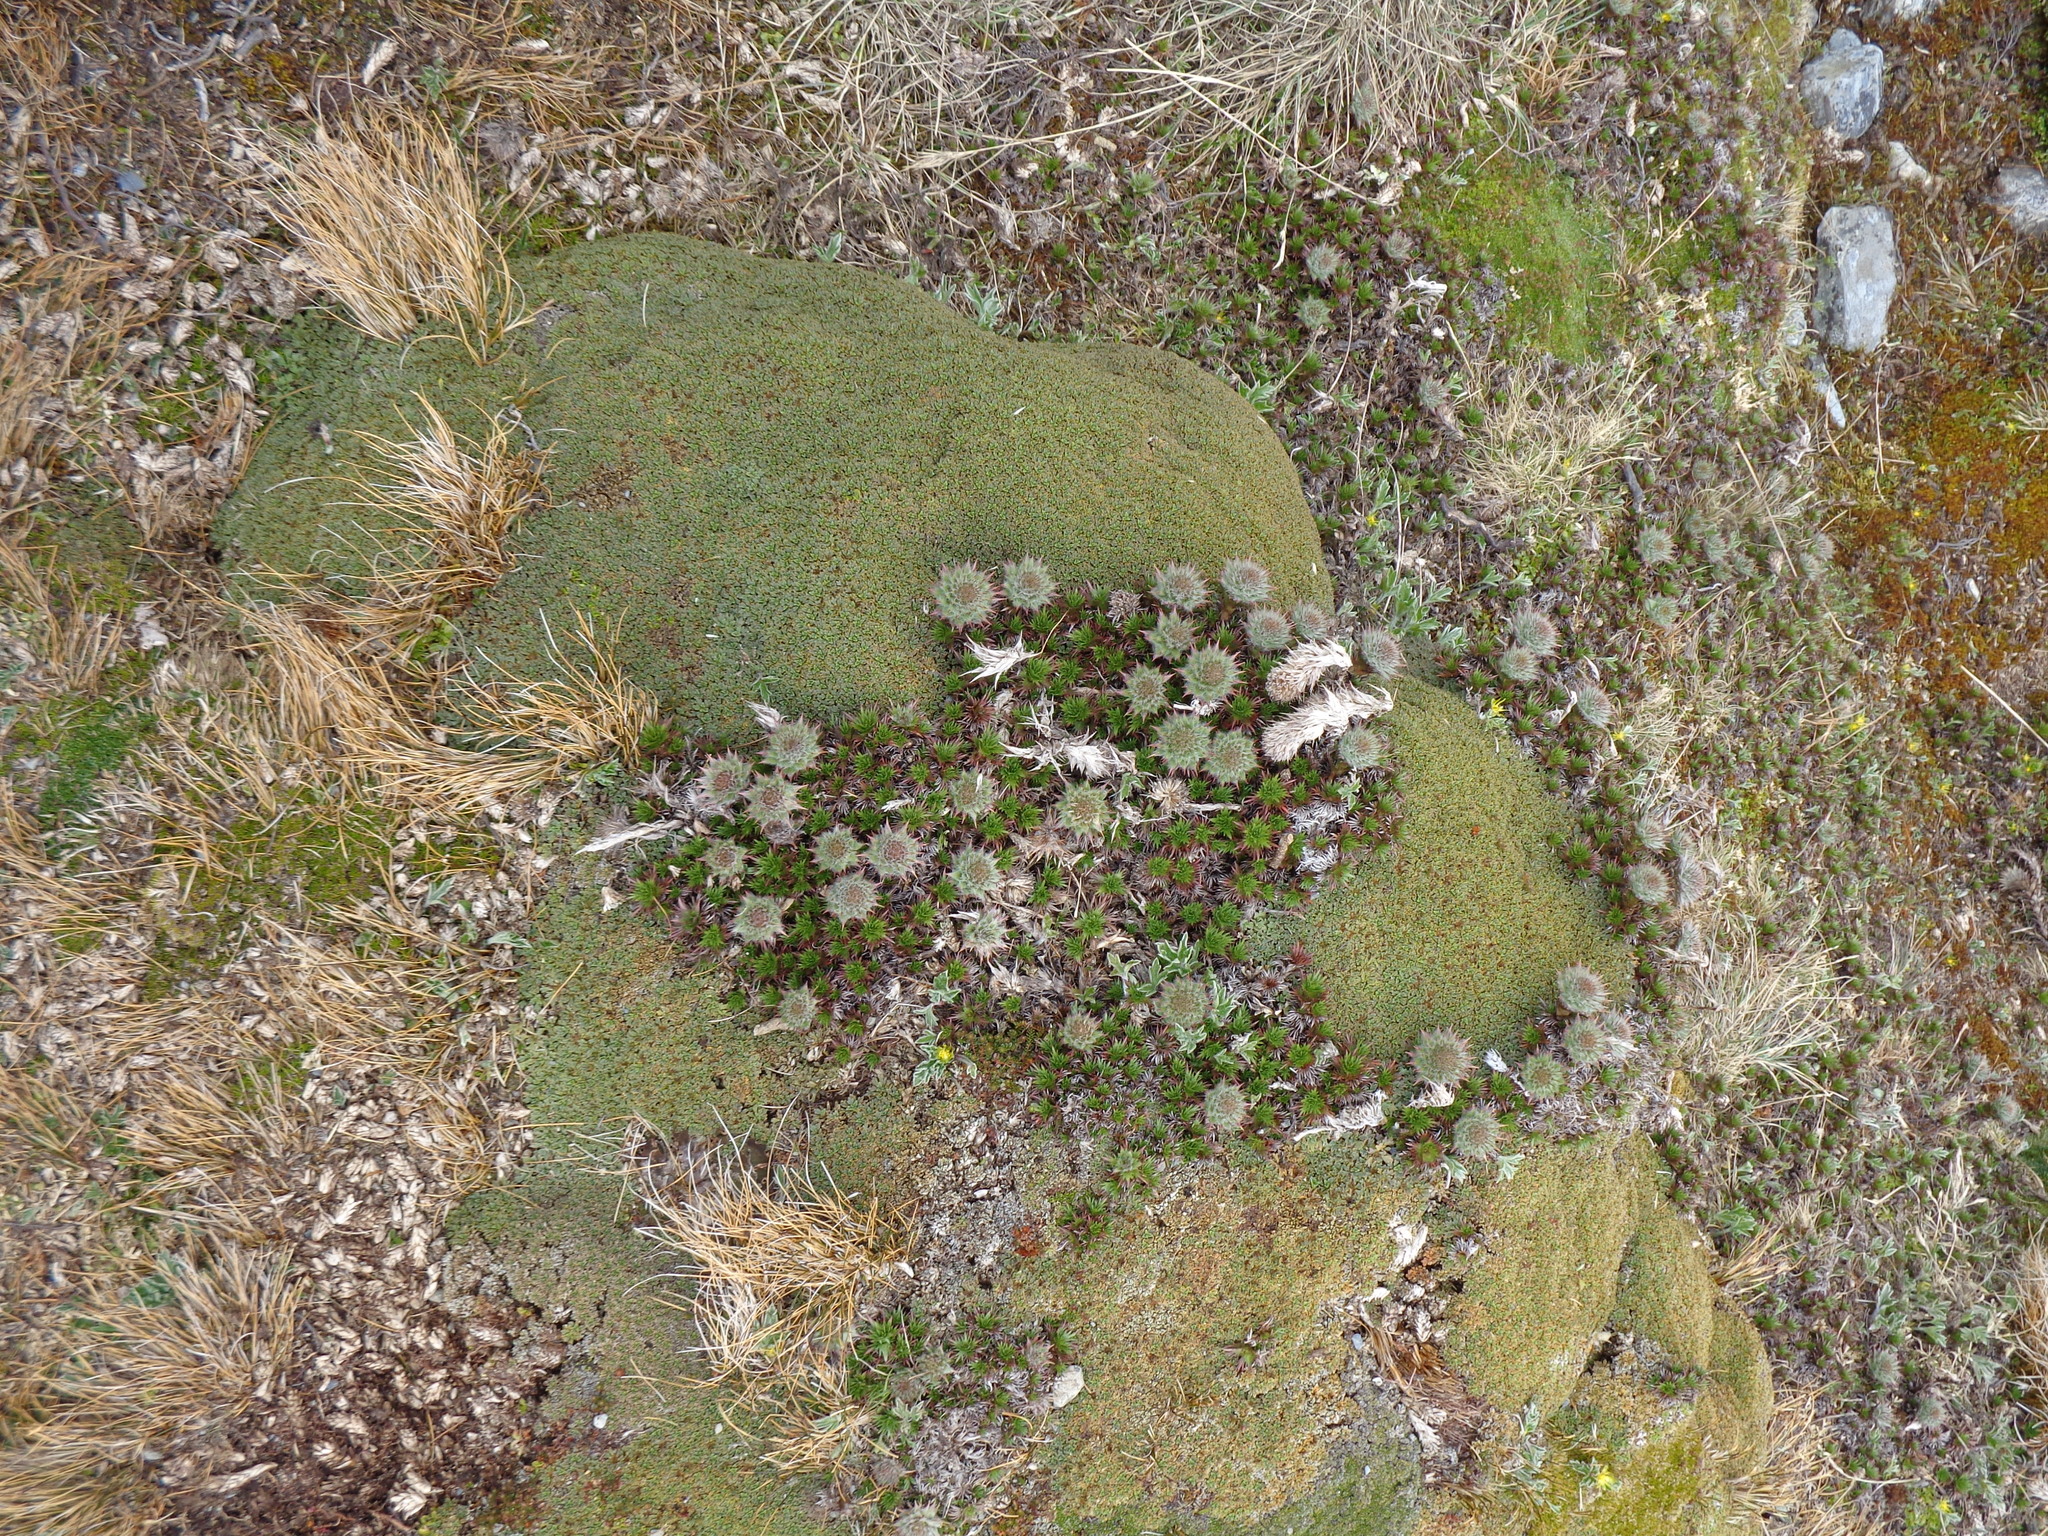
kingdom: Plantae
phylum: Tracheophyta
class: Magnoliopsida
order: Asterales
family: Asteraceae
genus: Nassauvia
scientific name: Nassauvia magellanica
